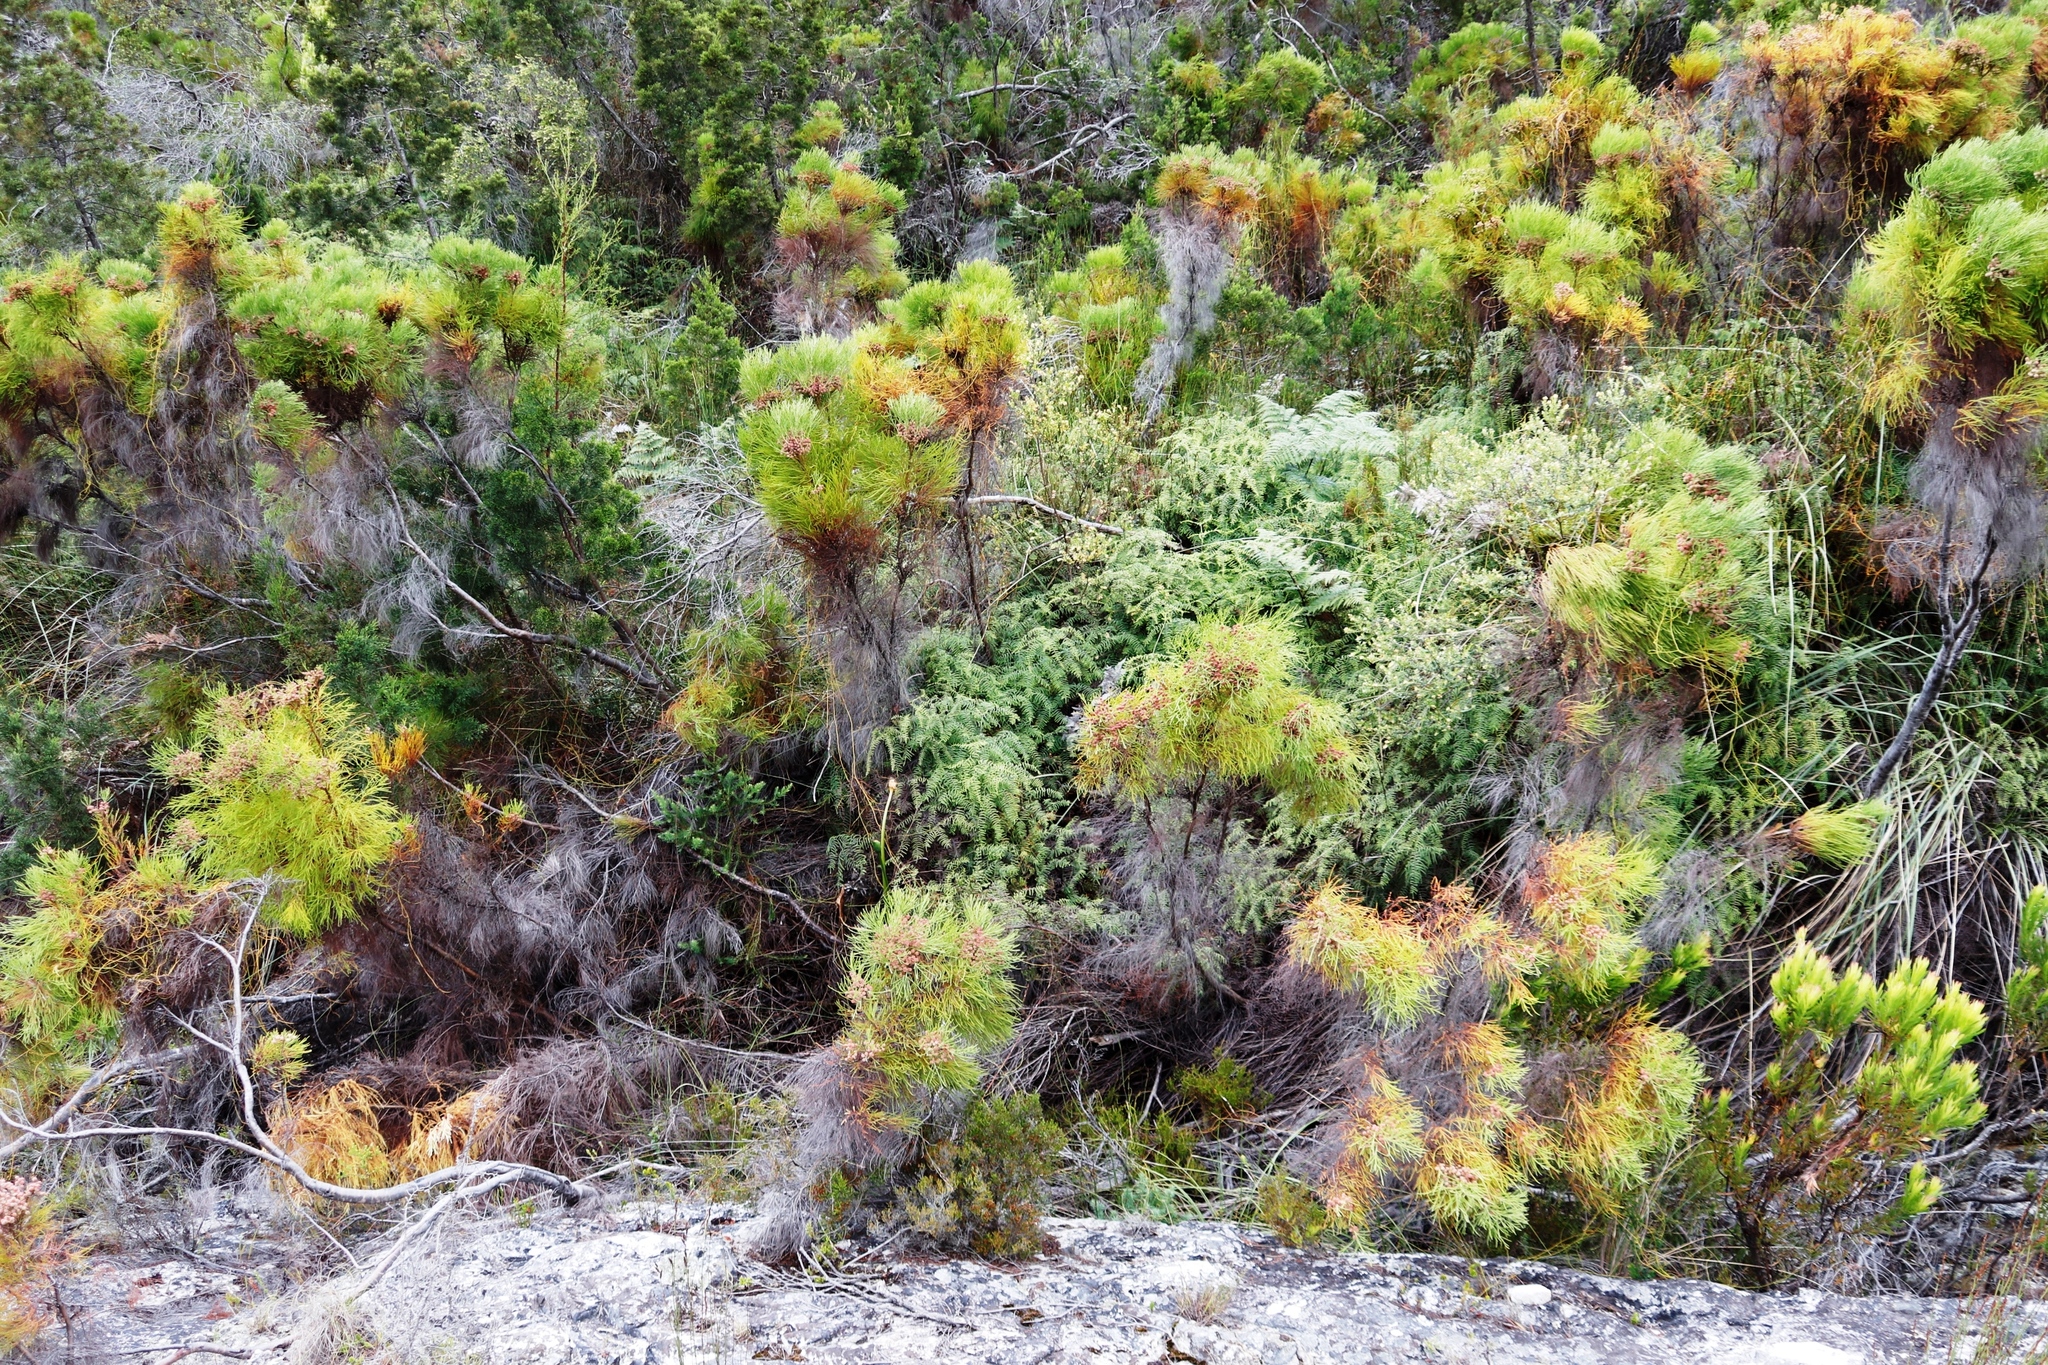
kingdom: Plantae
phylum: Tracheophyta
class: Polypodiopsida
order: Gleicheniales
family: Gleicheniaceae
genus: Gleichenia
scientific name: Gleichenia polypodioides
